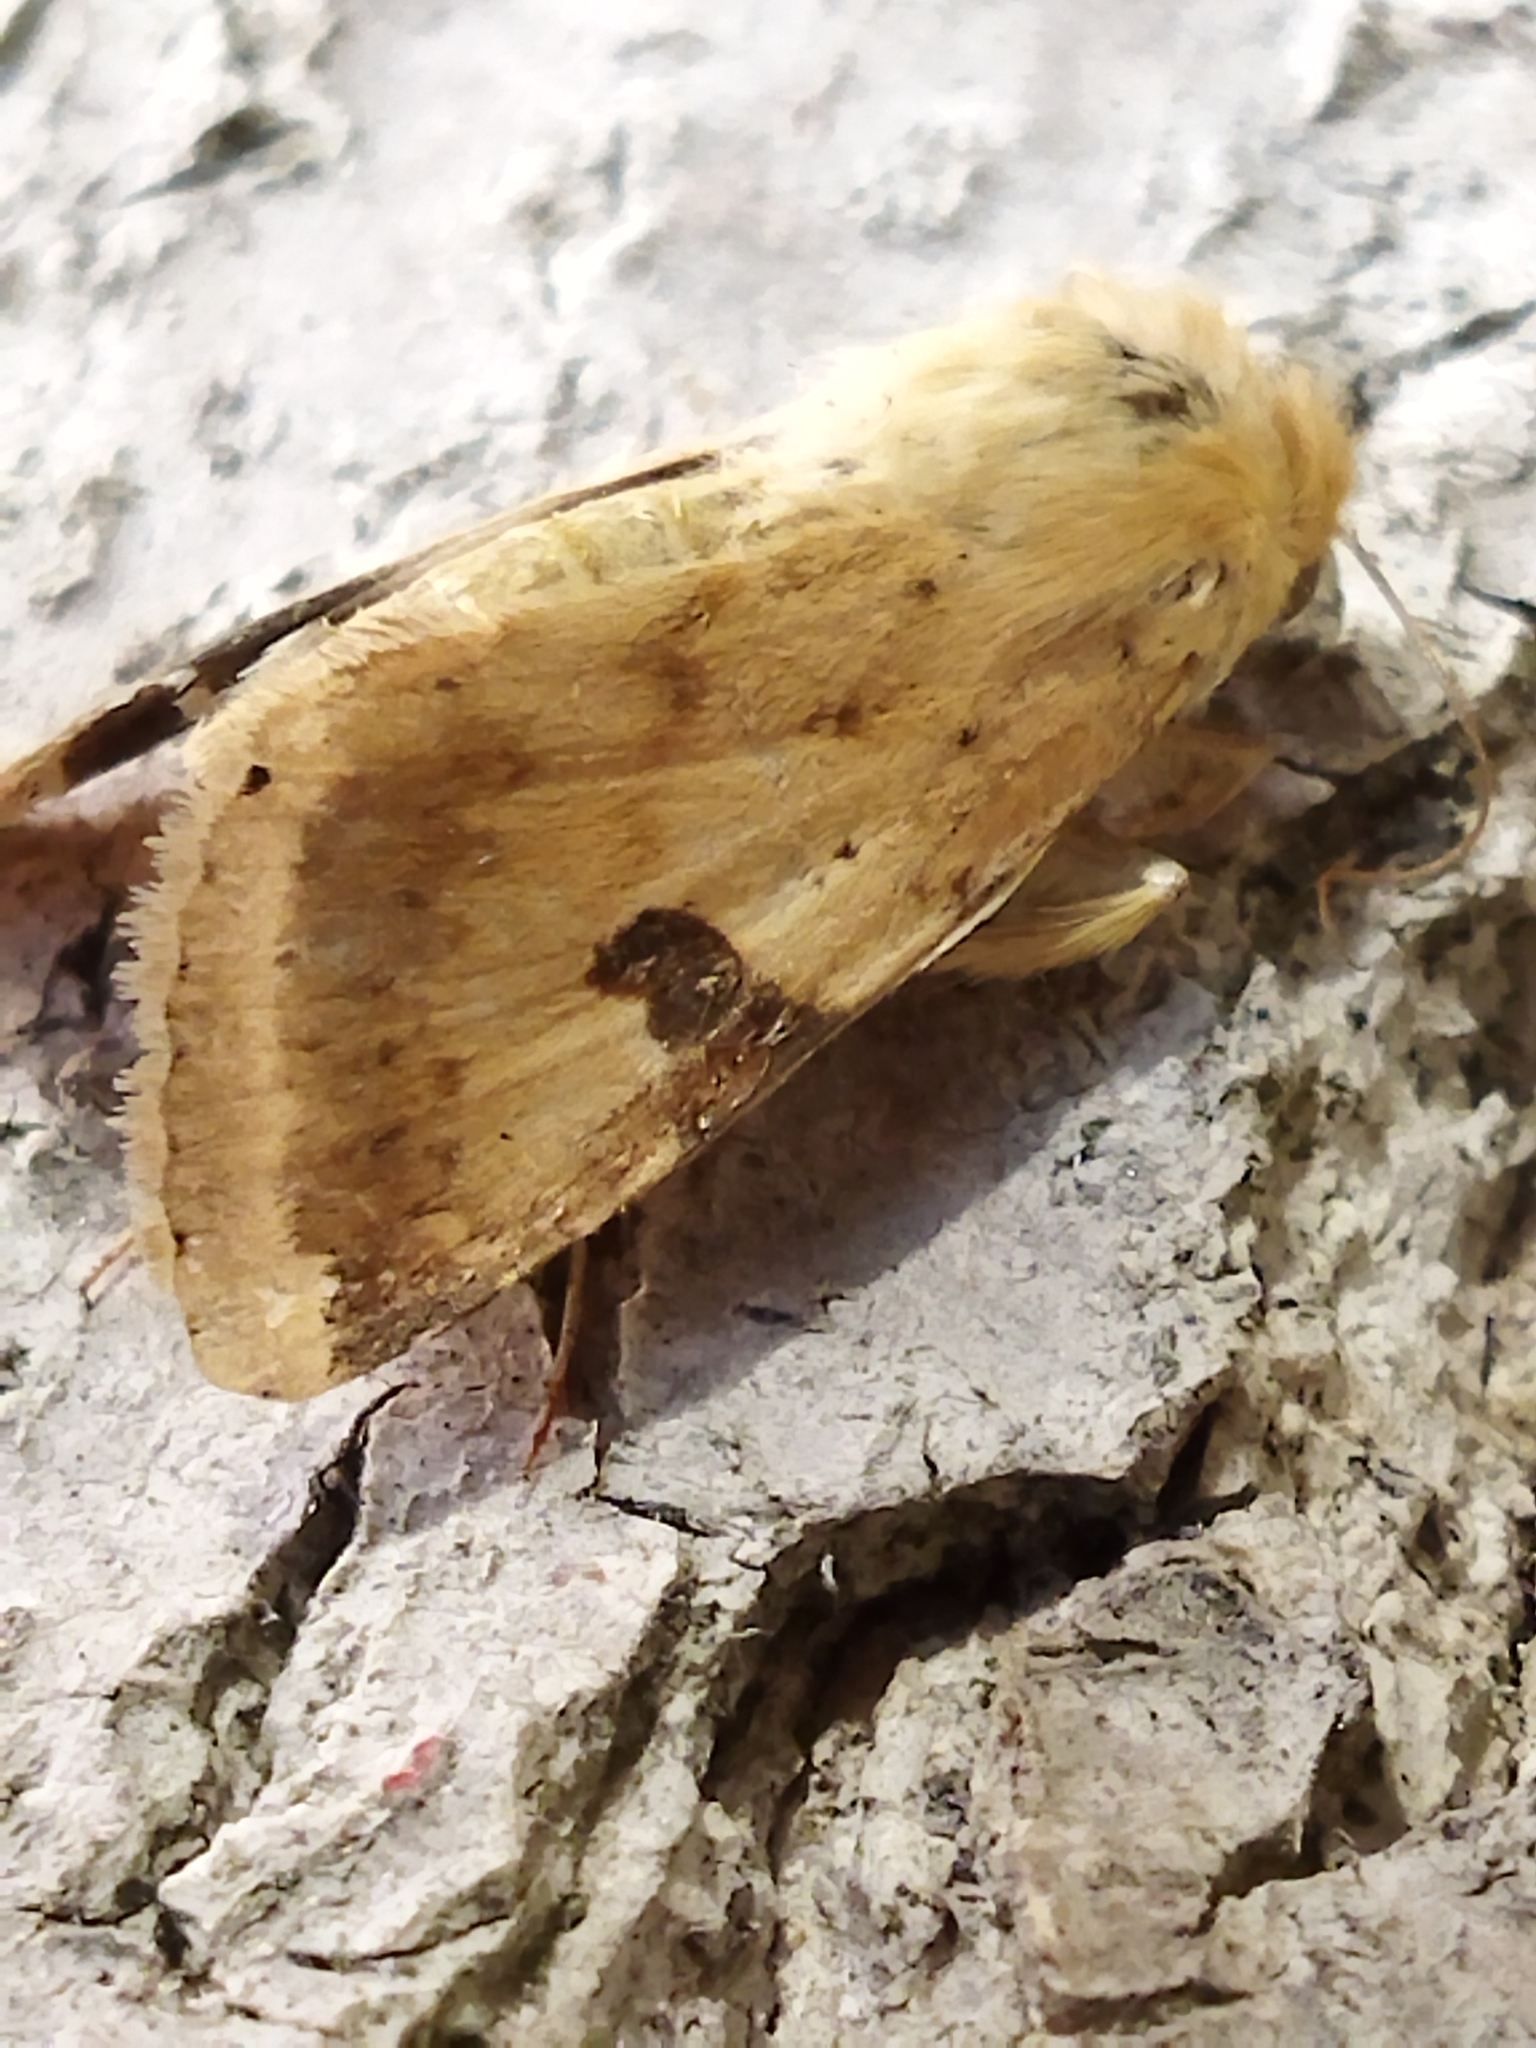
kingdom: Animalia
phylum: Arthropoda
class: Insecta
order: Lepidoptera
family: Noctuidae
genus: Heliothis
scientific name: Heliothis peltigera
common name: Bordered straw
